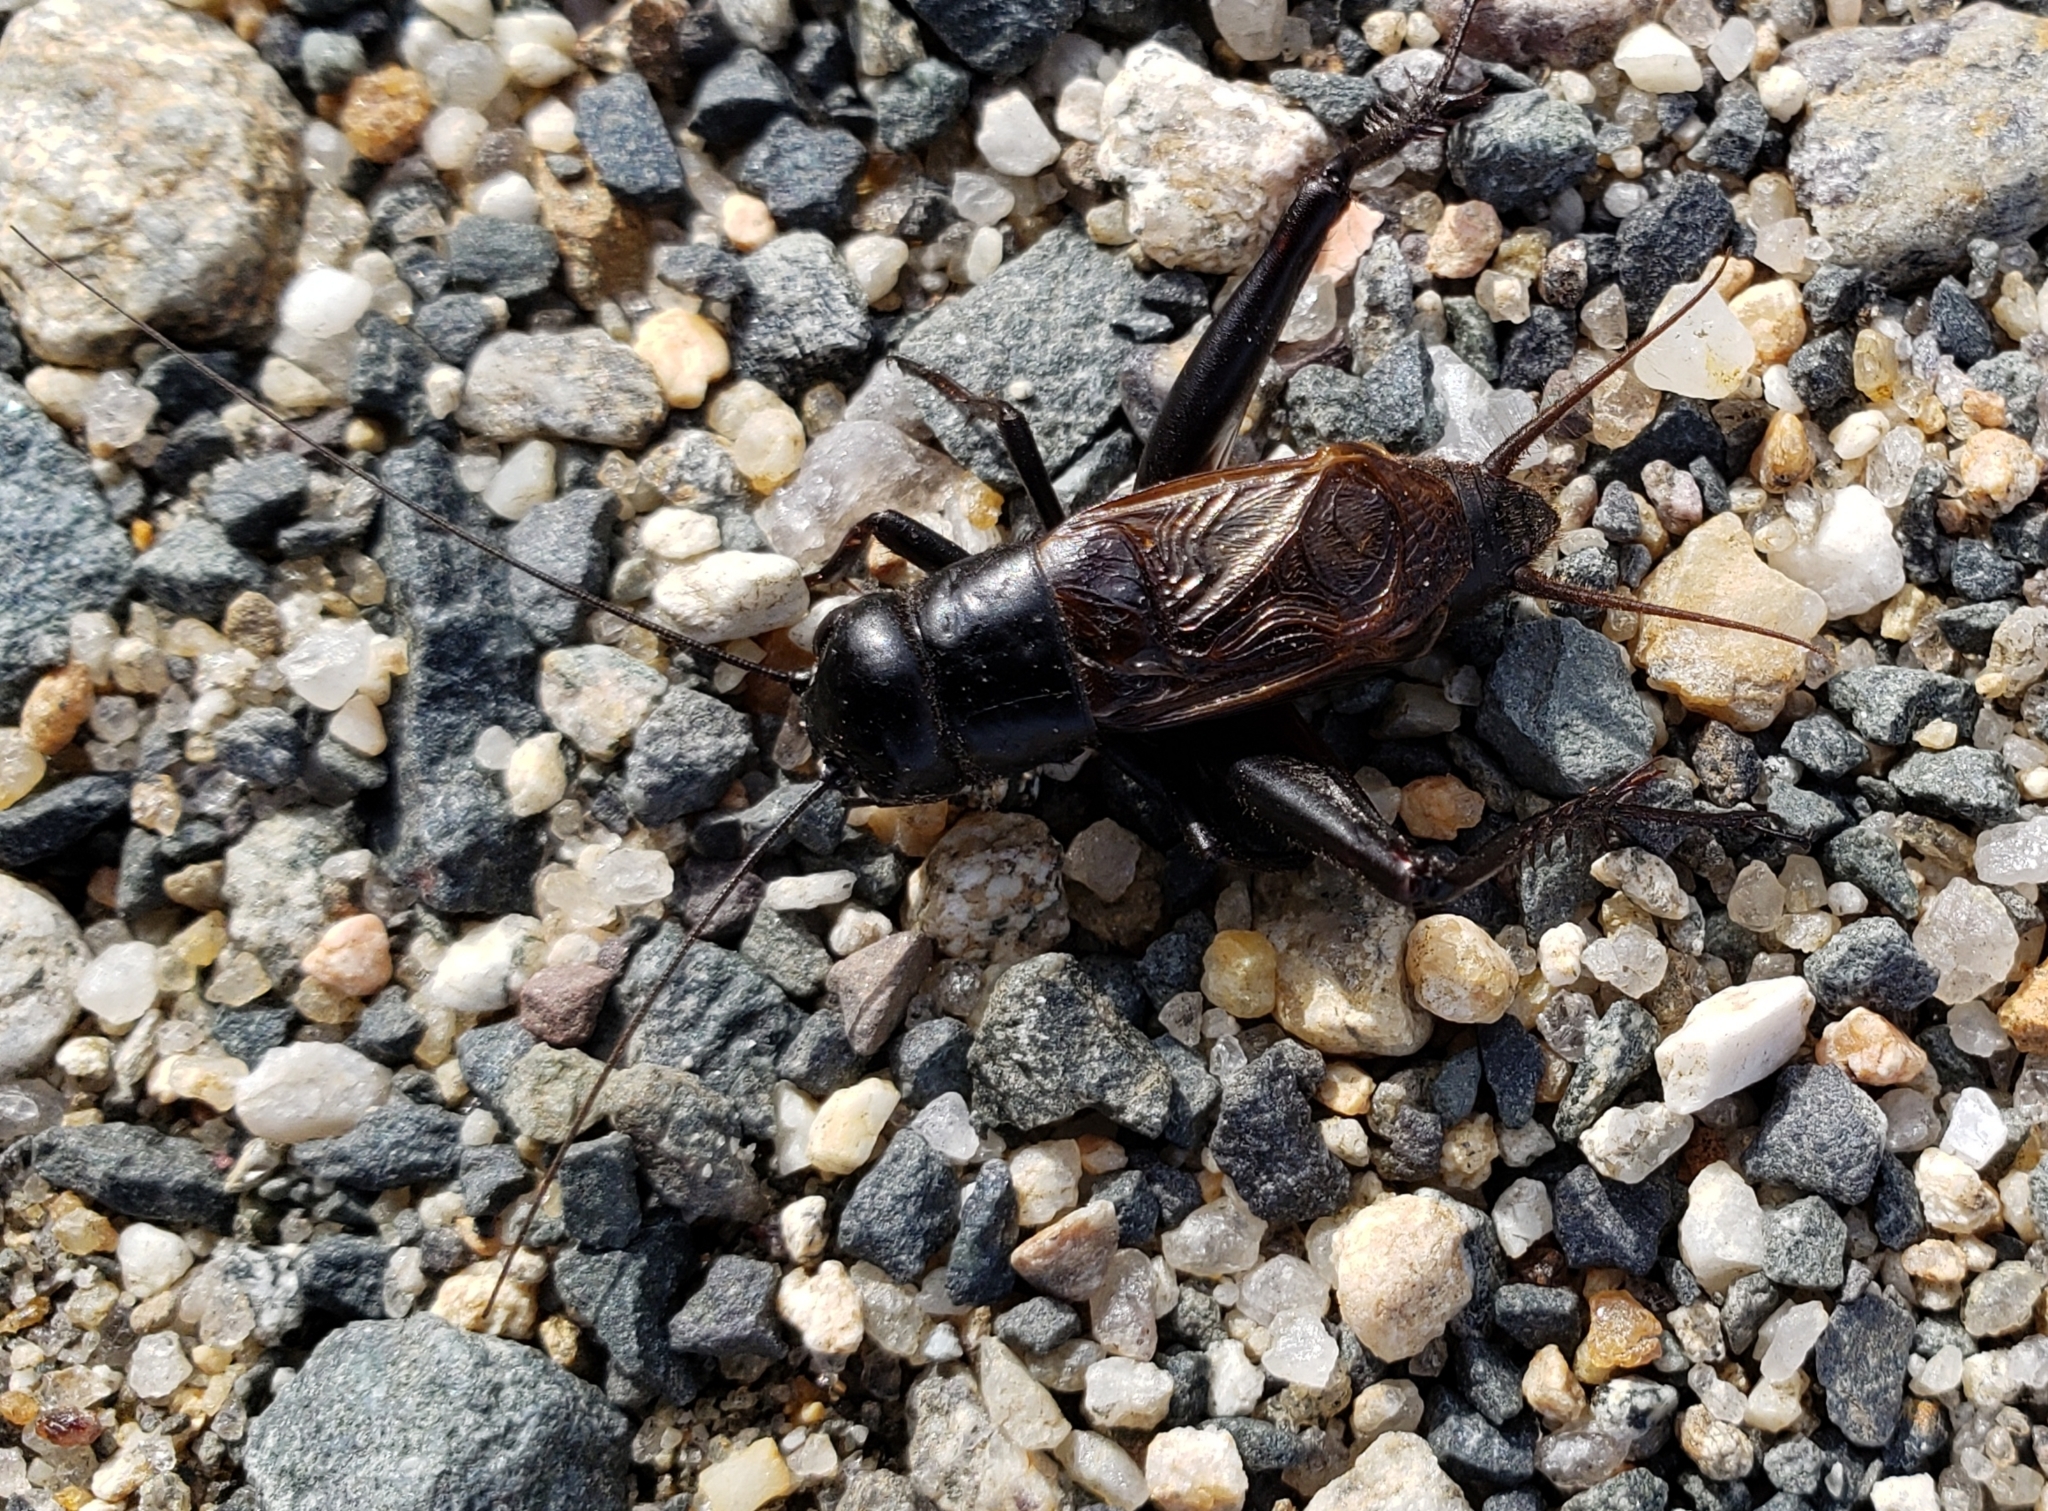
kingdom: Animalia
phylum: Arthropoda
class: Insecta
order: Orthoptera
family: Gryllidae
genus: Gryllus
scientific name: Gryllus pennsylvanicus
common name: Fall field cricket
